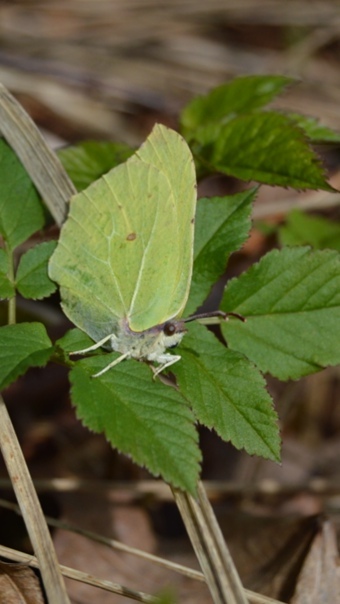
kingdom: Animalia
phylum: Arthropoda
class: Insecta
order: Lepidoptera
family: Pieridae
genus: Gonepteryx
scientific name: Gonepteryx rhamni
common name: Brimstone
